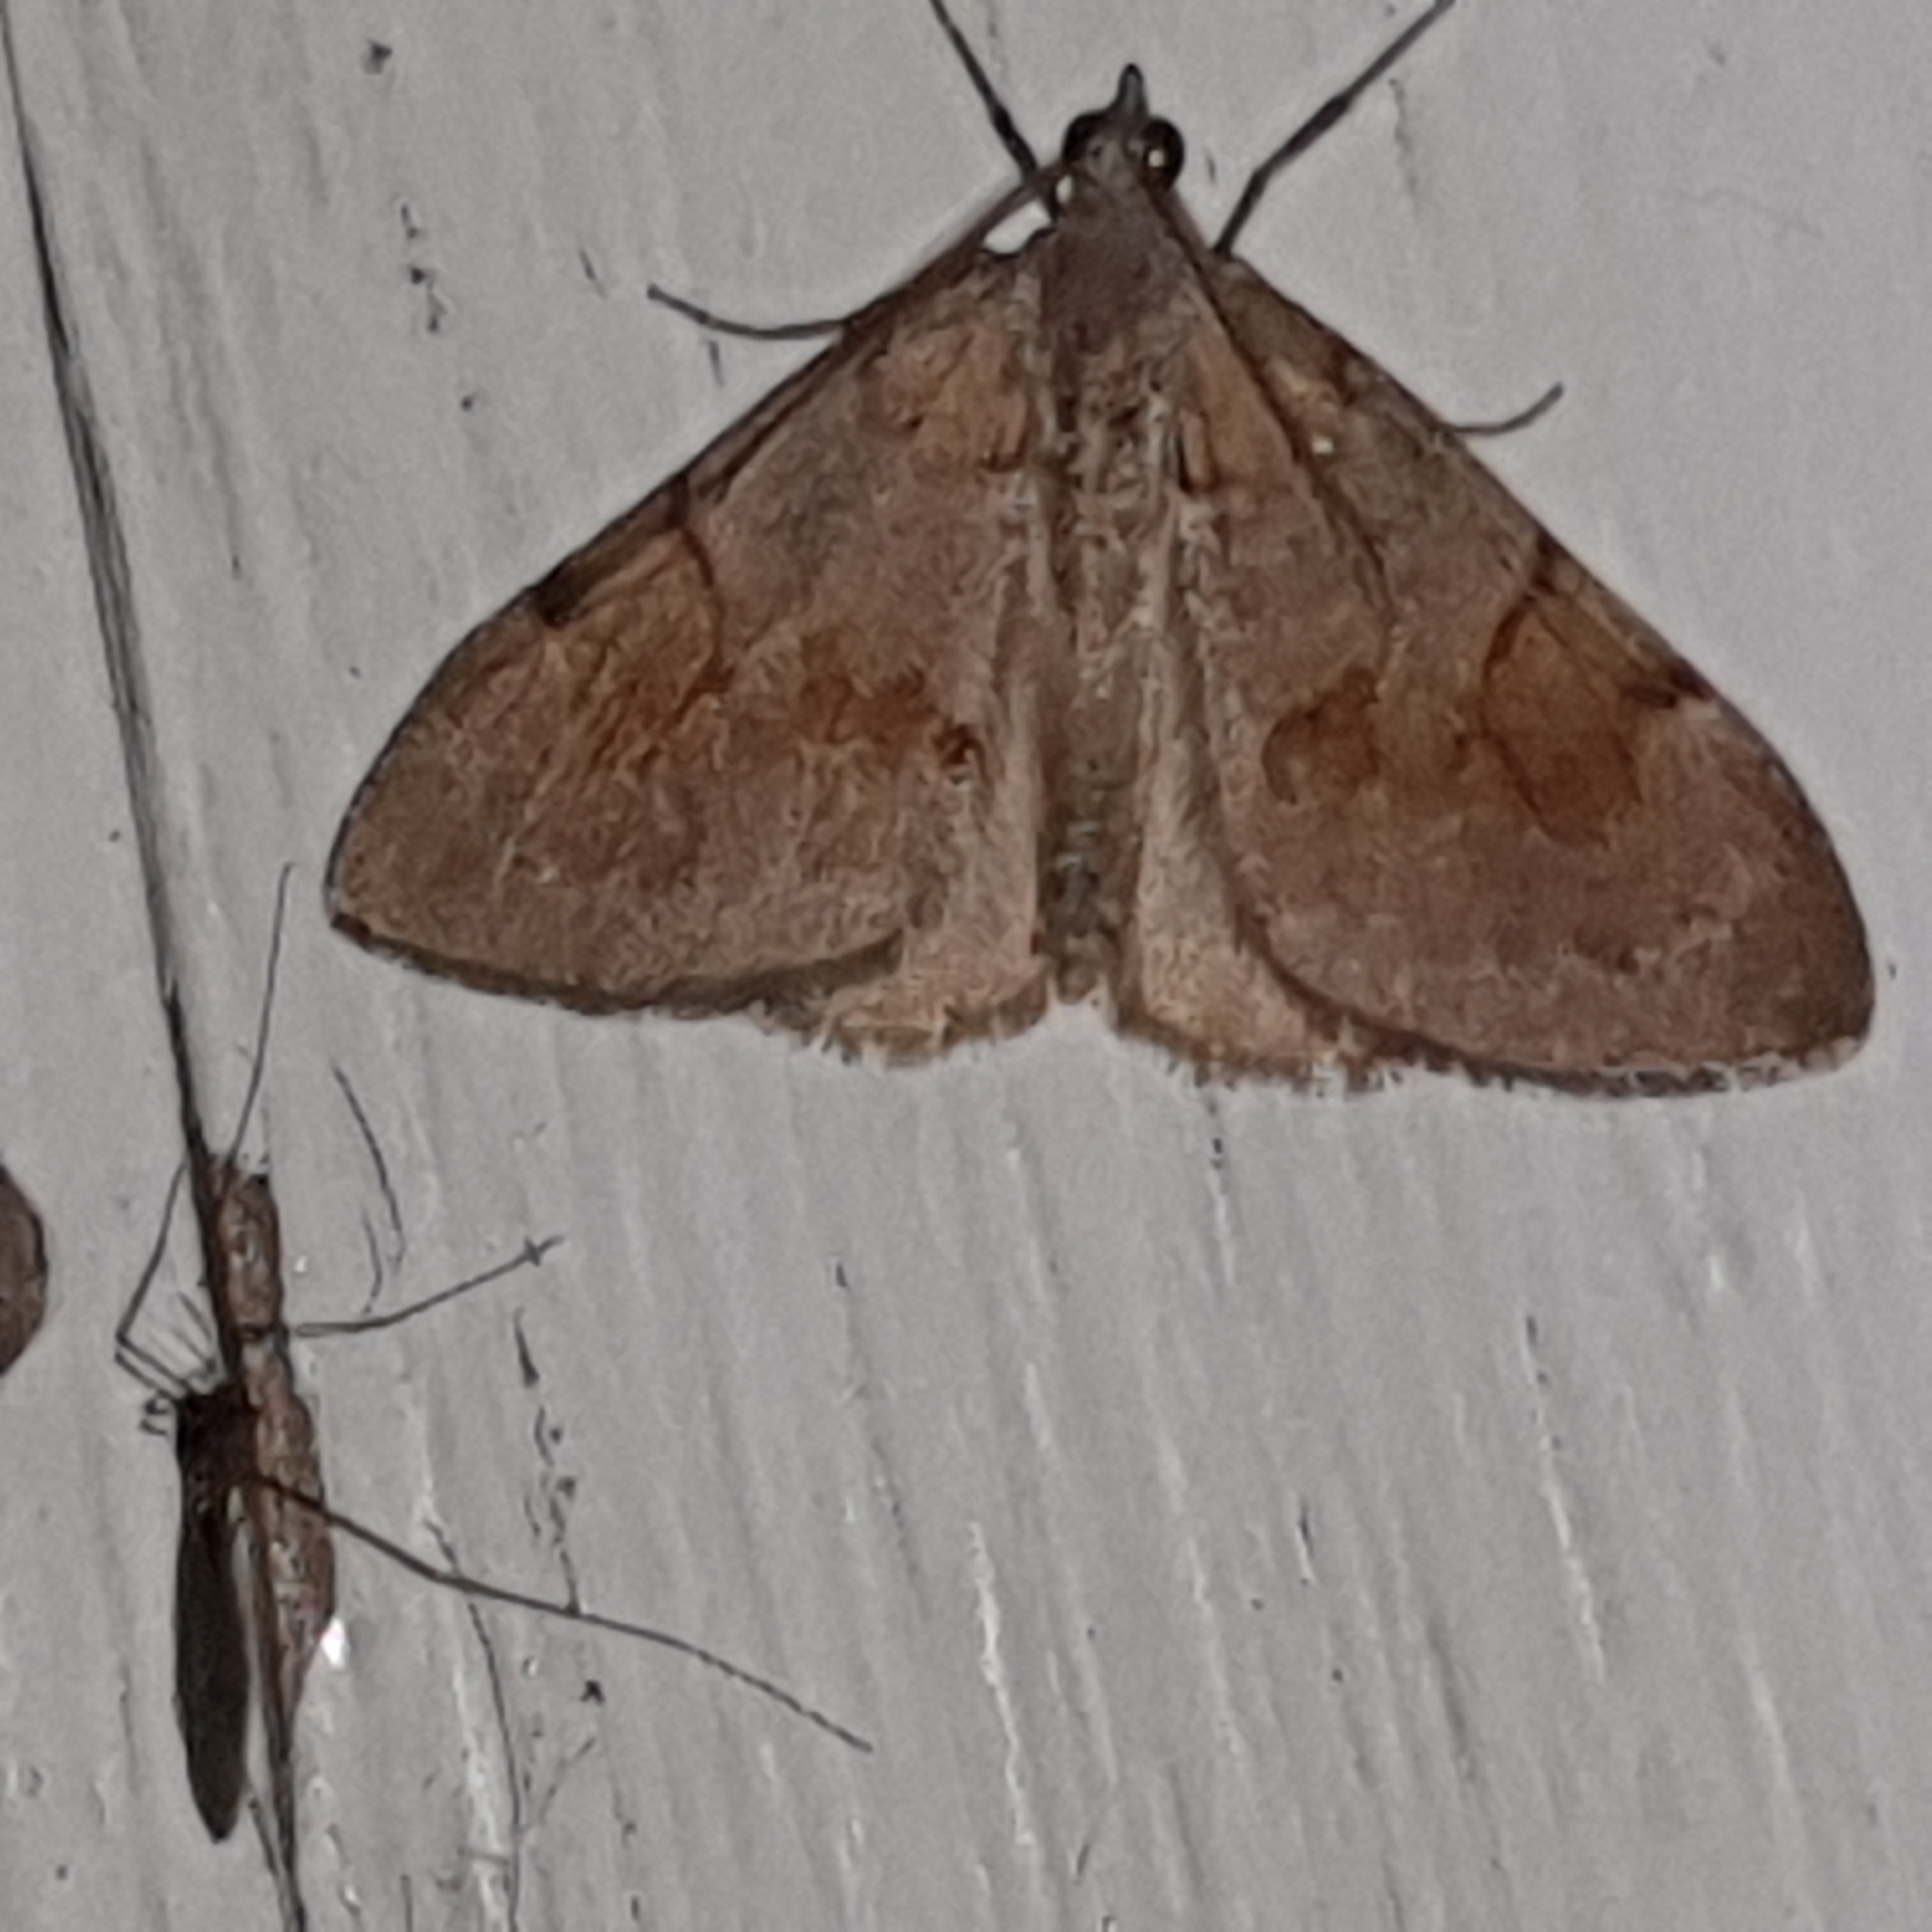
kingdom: Animalia
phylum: Arthropoda
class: Insecta
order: Lepidoptera
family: Geometridae
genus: Pennithera
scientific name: Pennithera firmata
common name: Pine carpet
